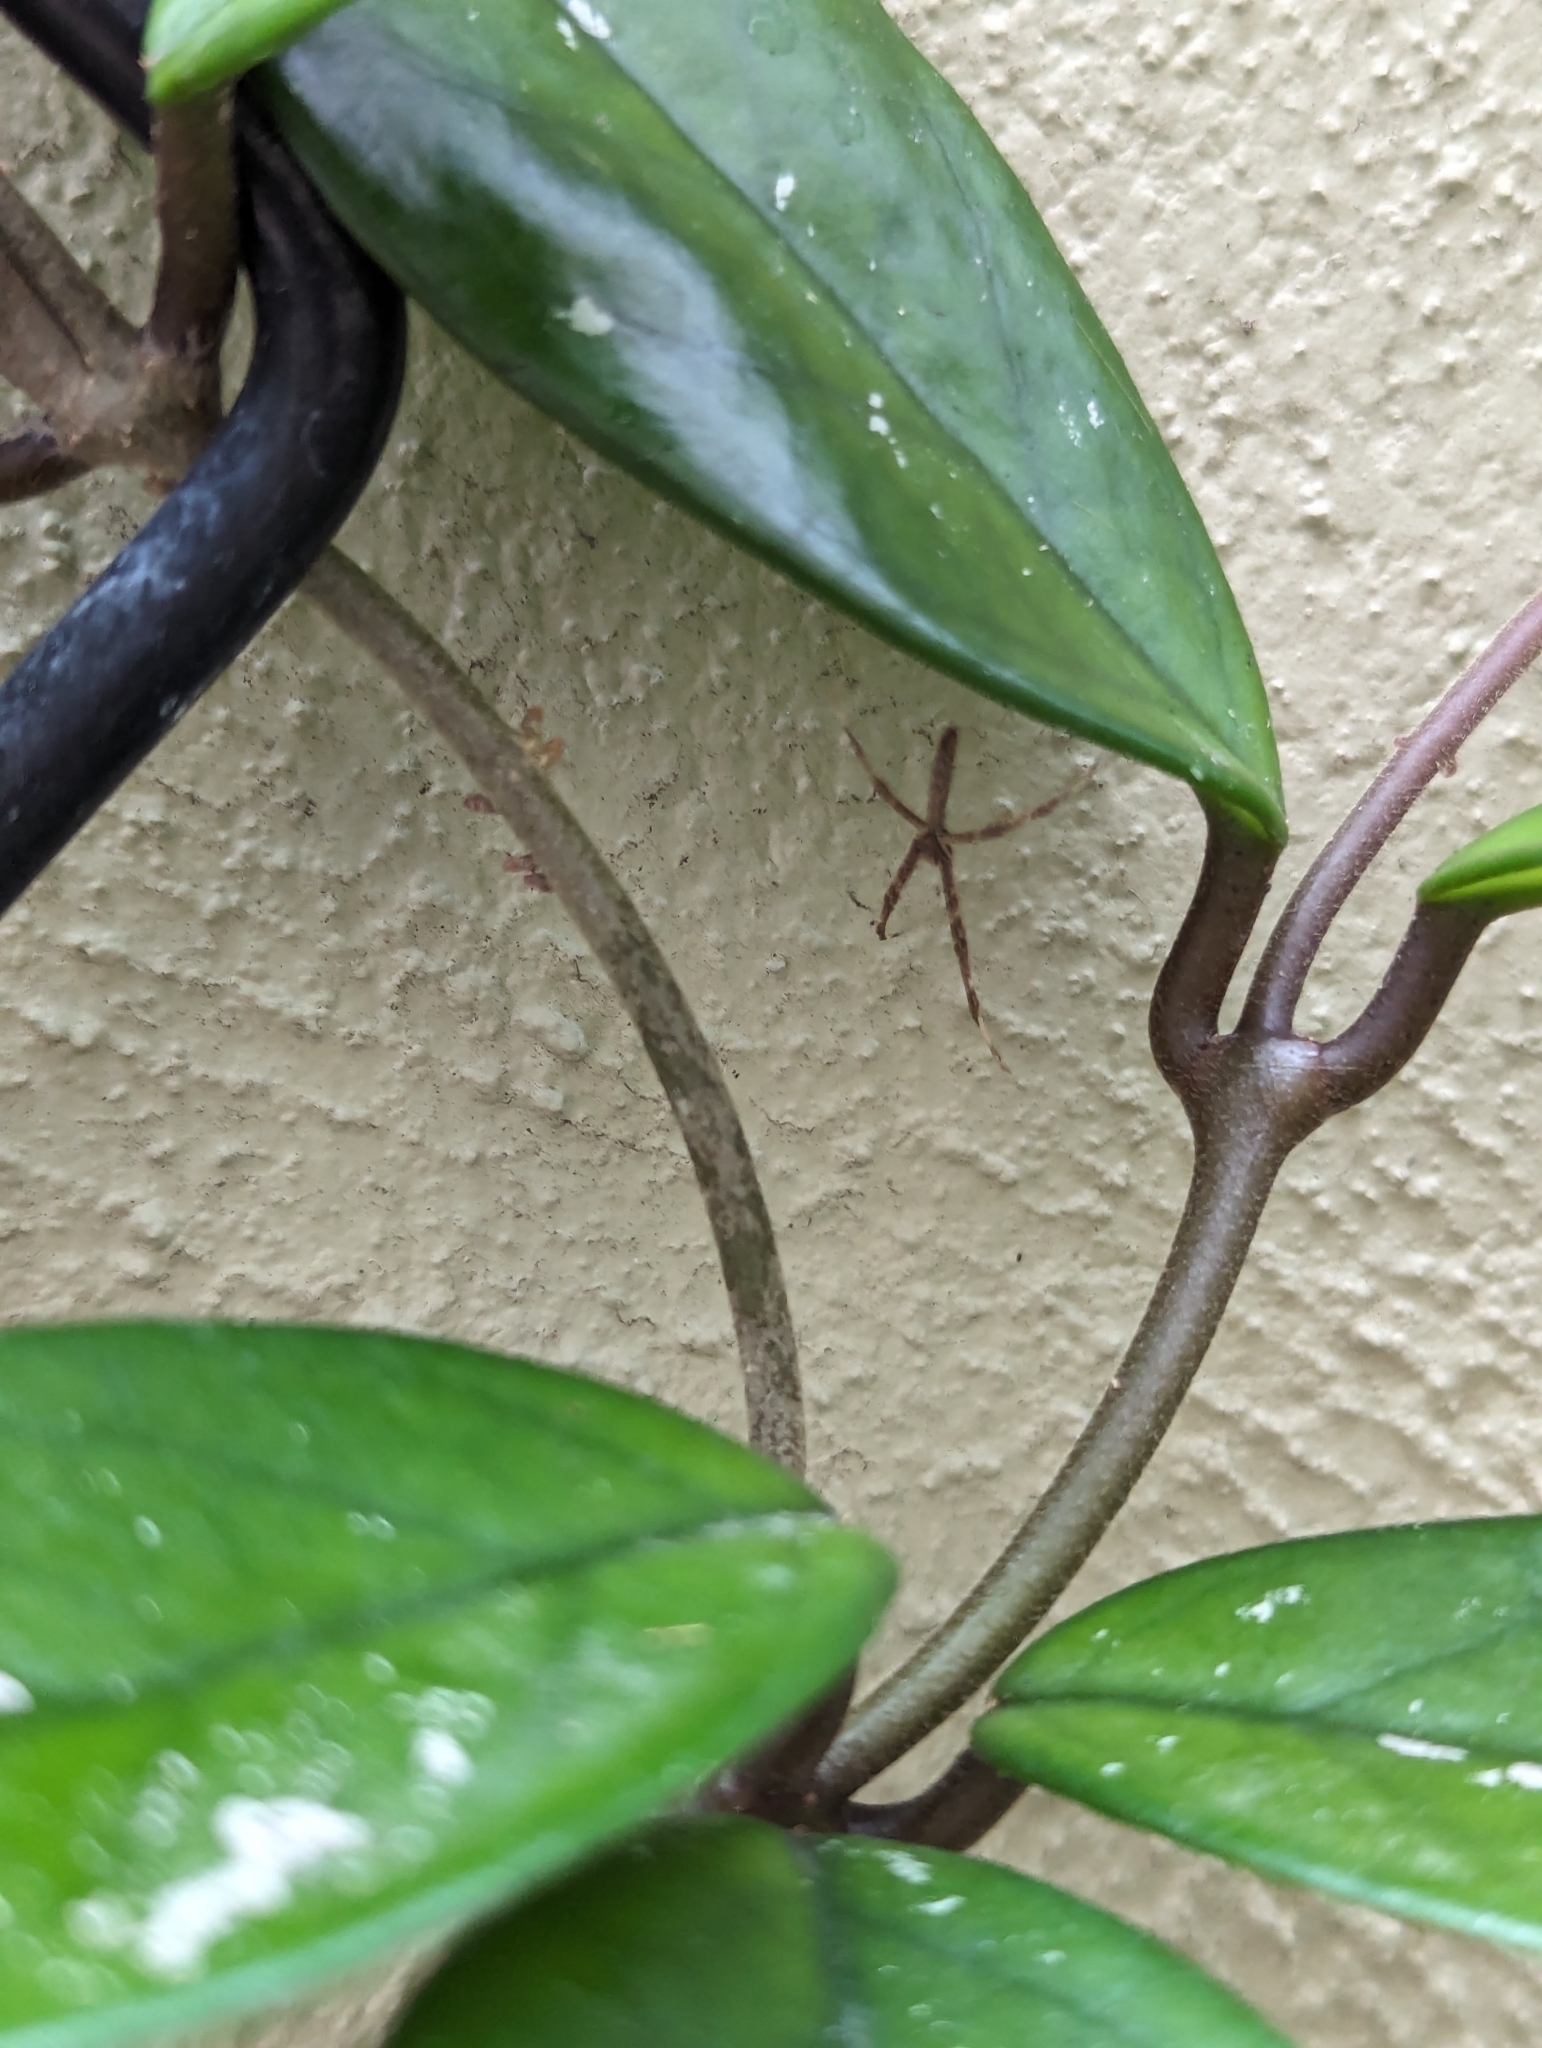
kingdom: Animalia
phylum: Arthropoda
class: Arachnida
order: Araneae
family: Deinopidae
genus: Deinopis
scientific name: Deinopis subrufa
